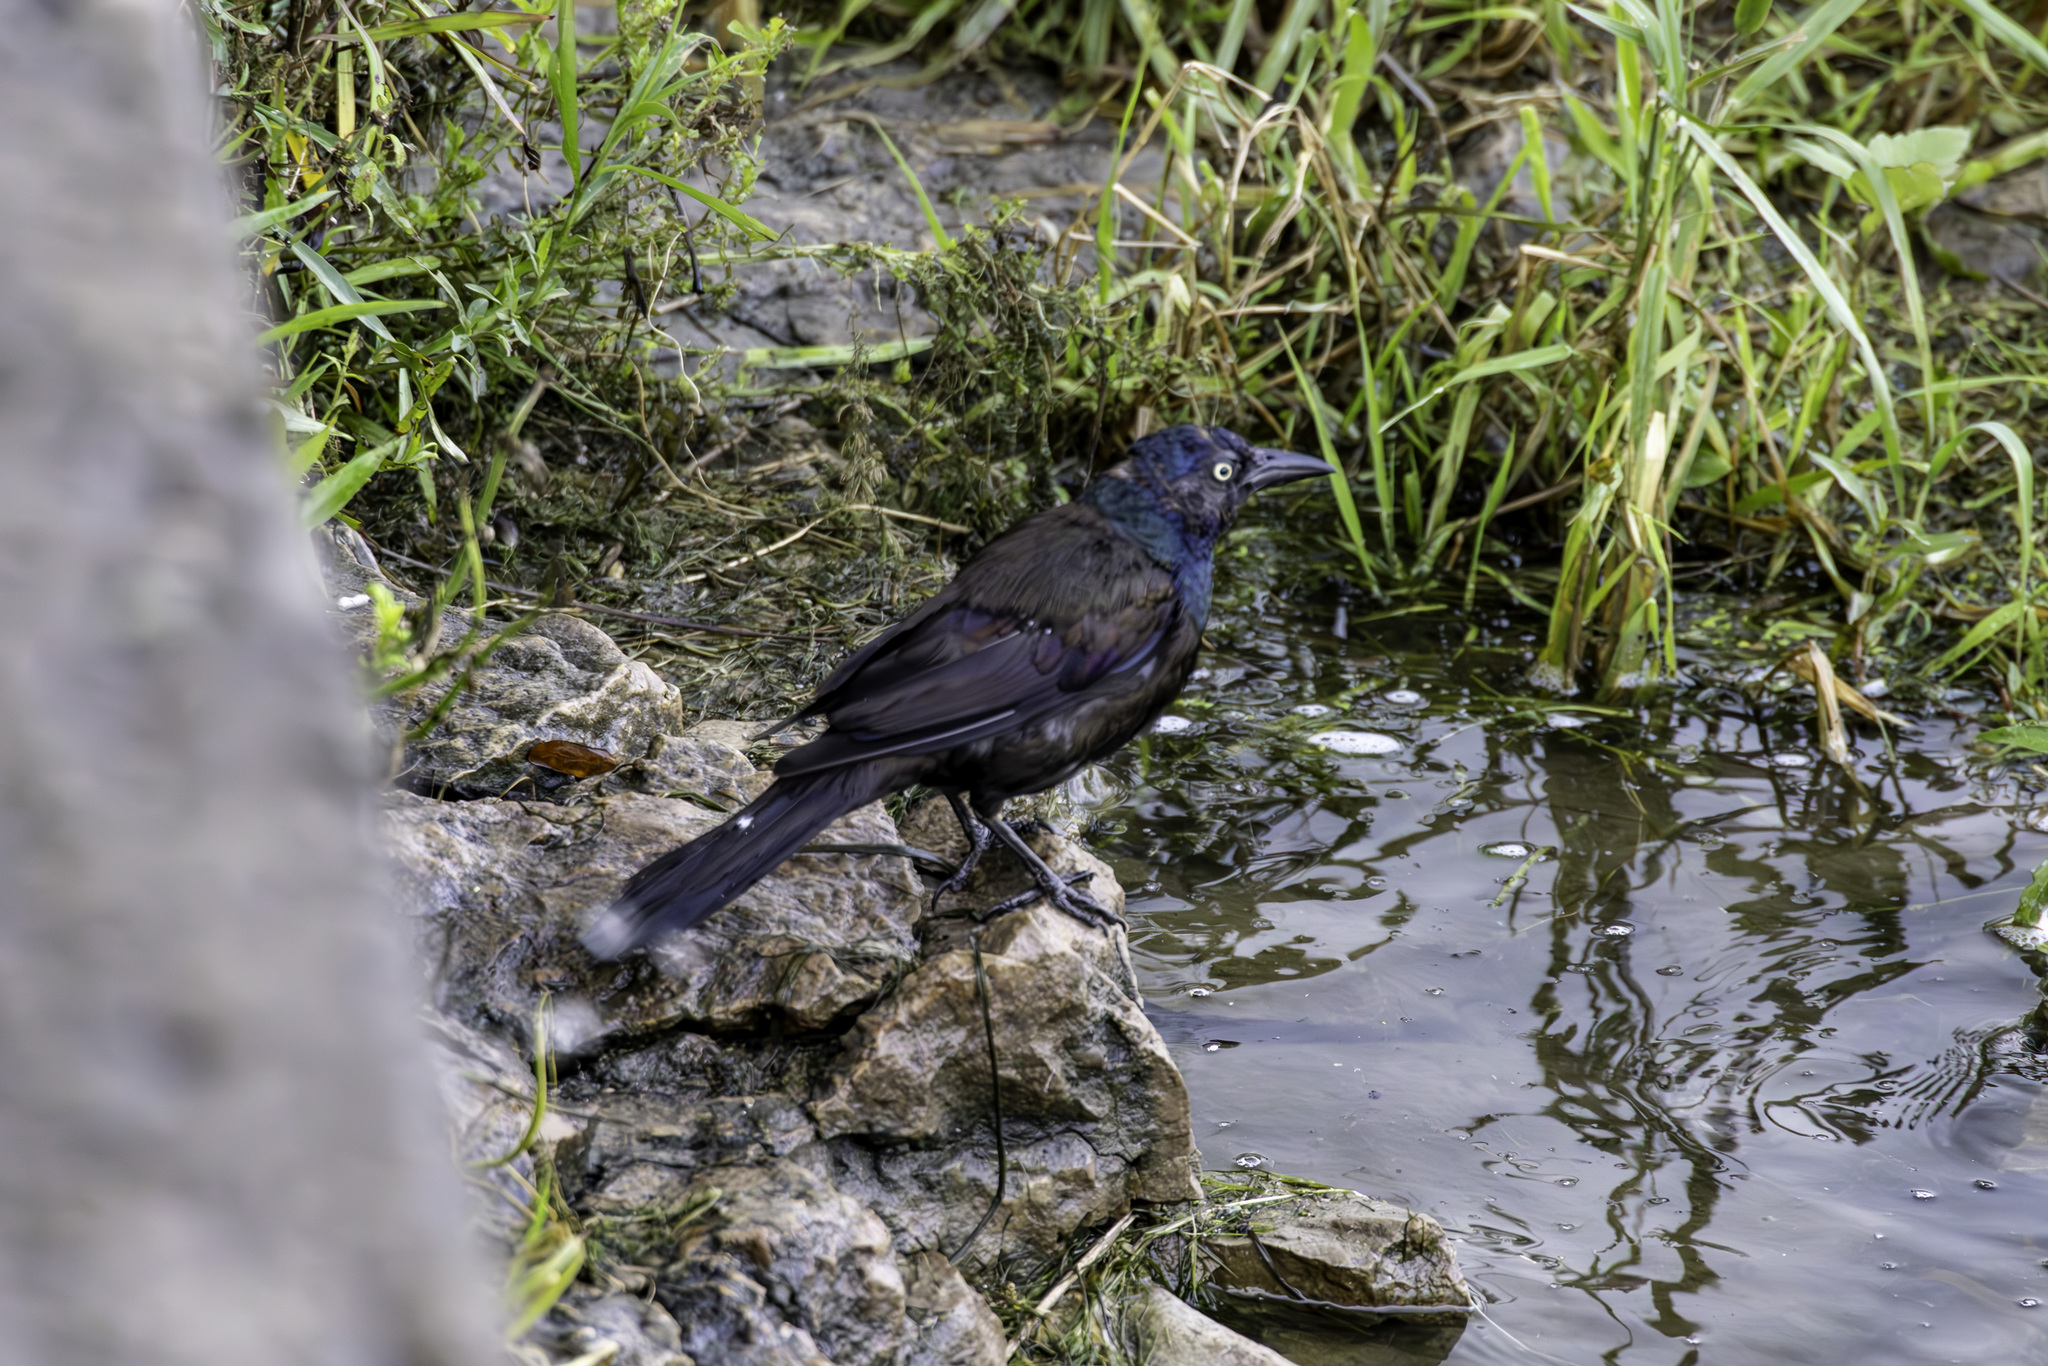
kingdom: Animalia
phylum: Chordata
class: Aves
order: Passeriformes
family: Icteridae
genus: Quiscalus
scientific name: Quiscalus quiscula
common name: Common grackle
